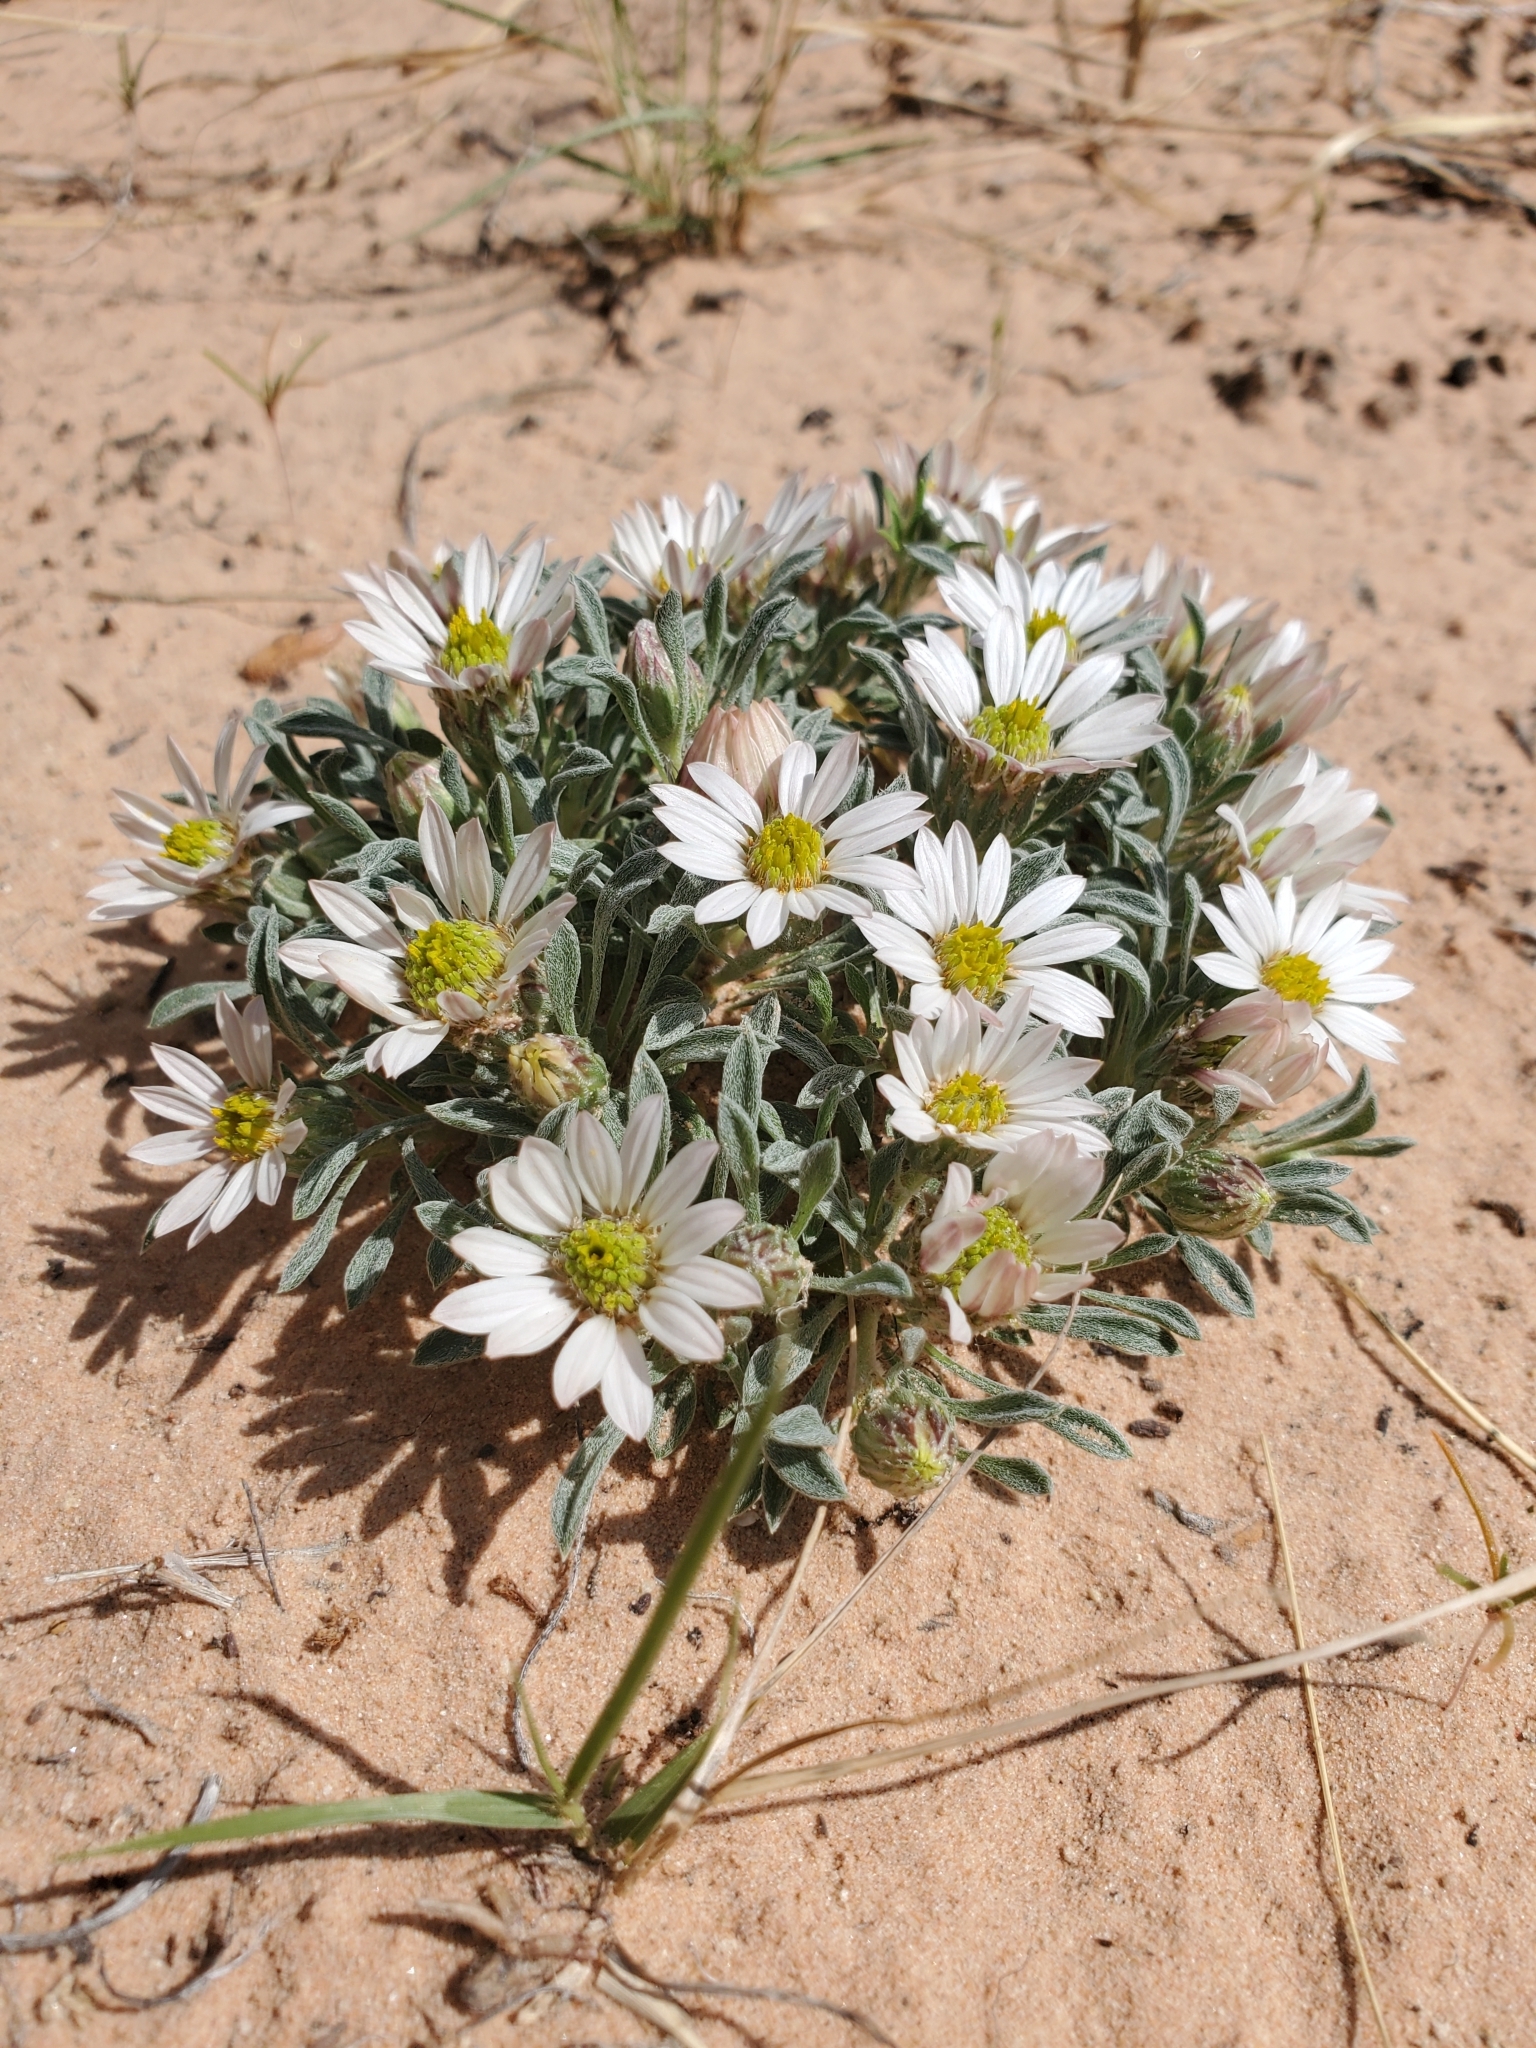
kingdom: Plantae
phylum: Tracheophyta
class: Magnoliopsida
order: Asterales
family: Asteraceae
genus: Townsendia
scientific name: Townsendia incana
